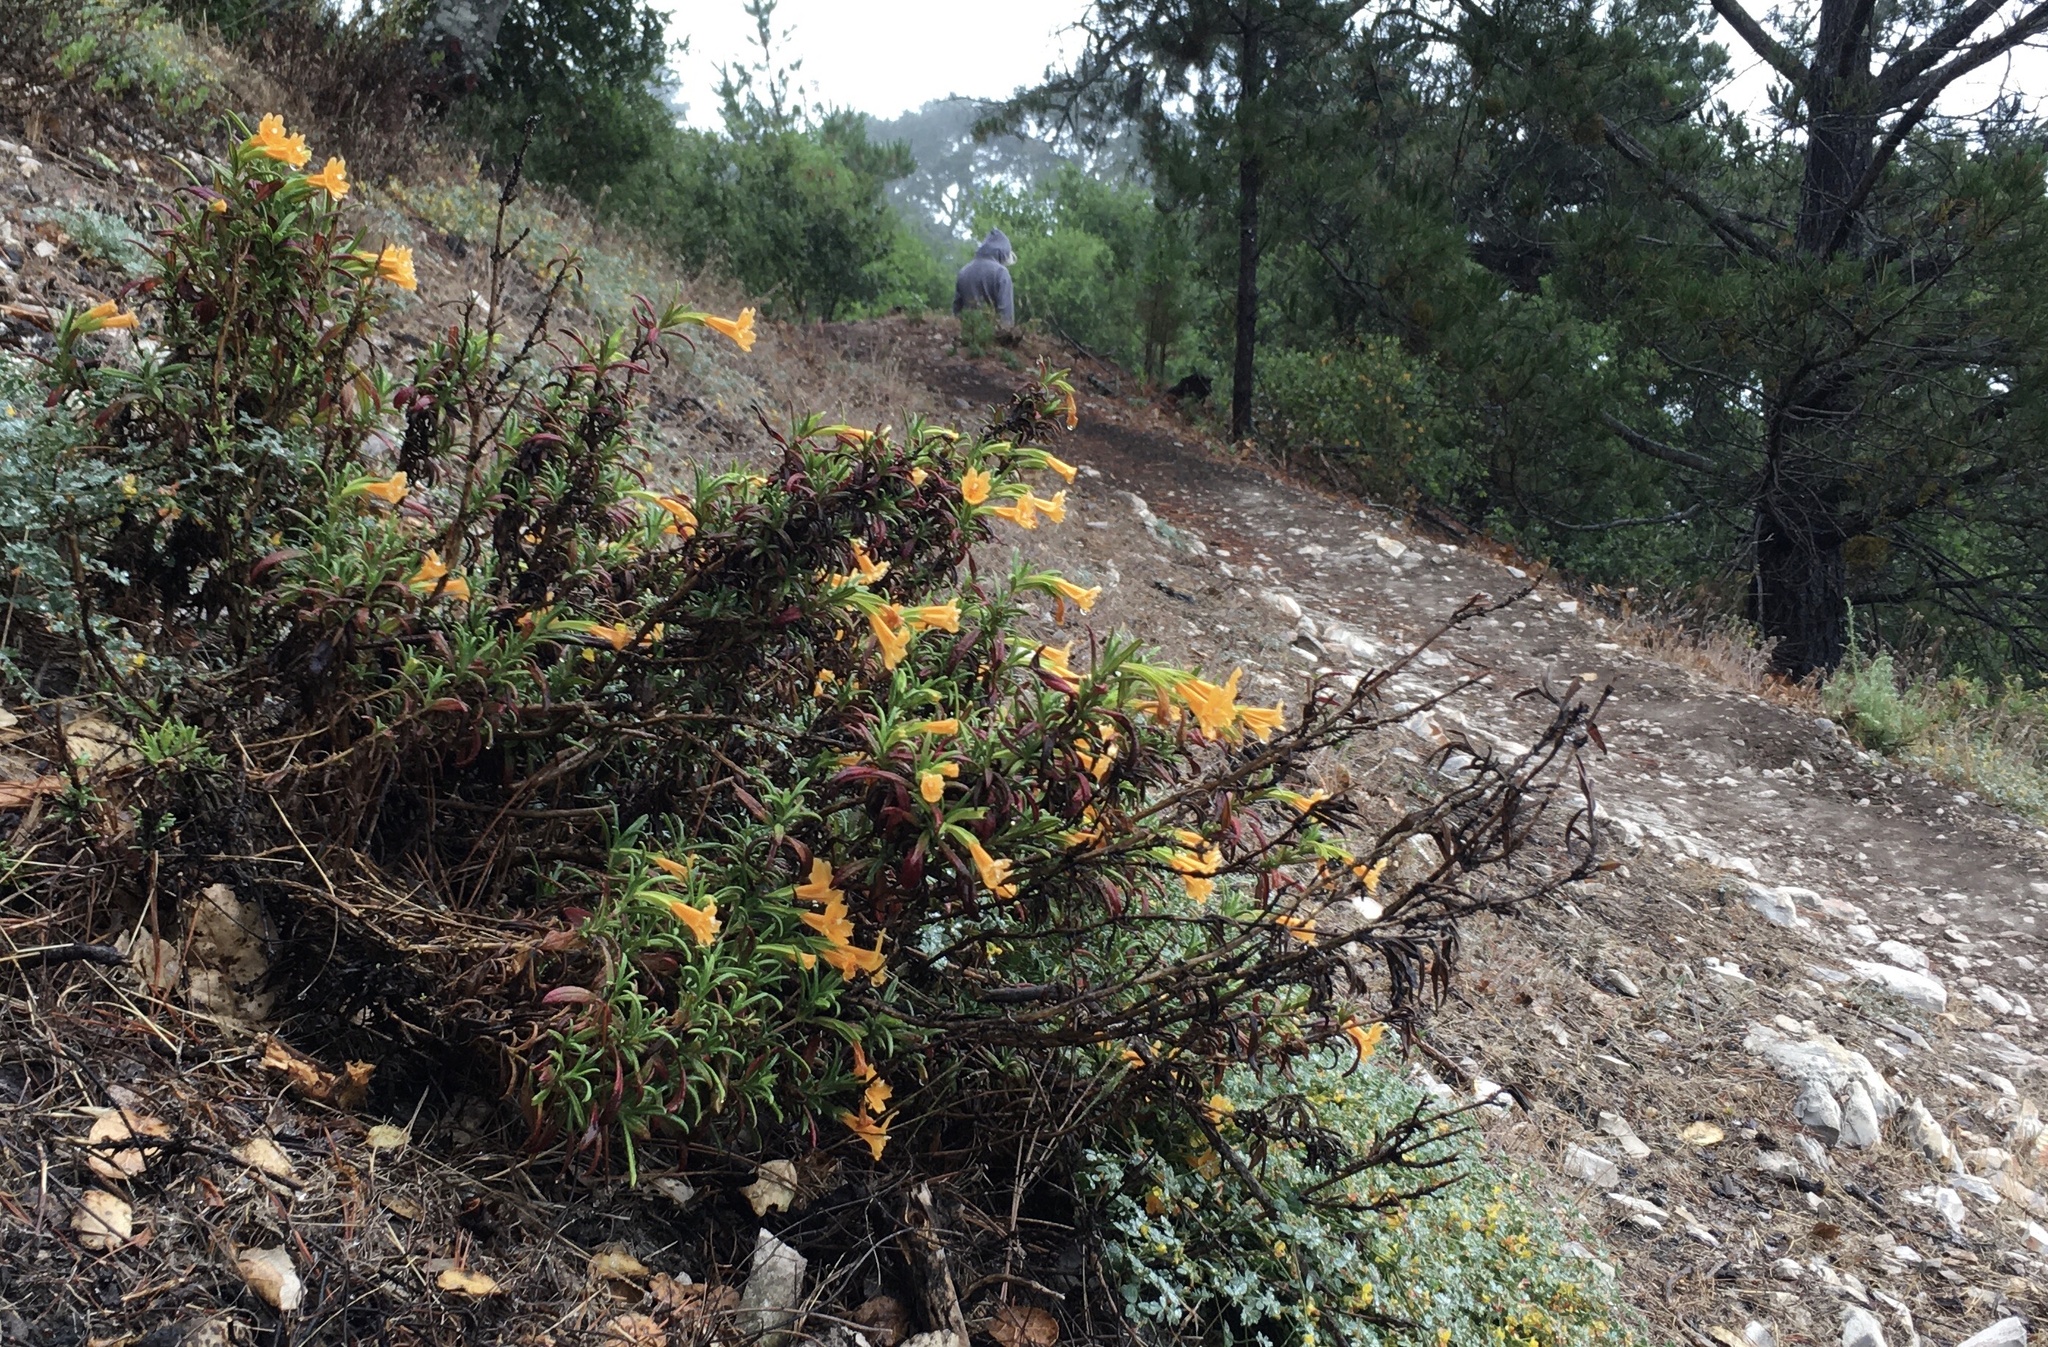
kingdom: Plantae
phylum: Tracheophyta
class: Magnoliopsida
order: Lamiales
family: Phrymaceae
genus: Diplacus
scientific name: Diplacus aurantiacus
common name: Bush monkey-flower
